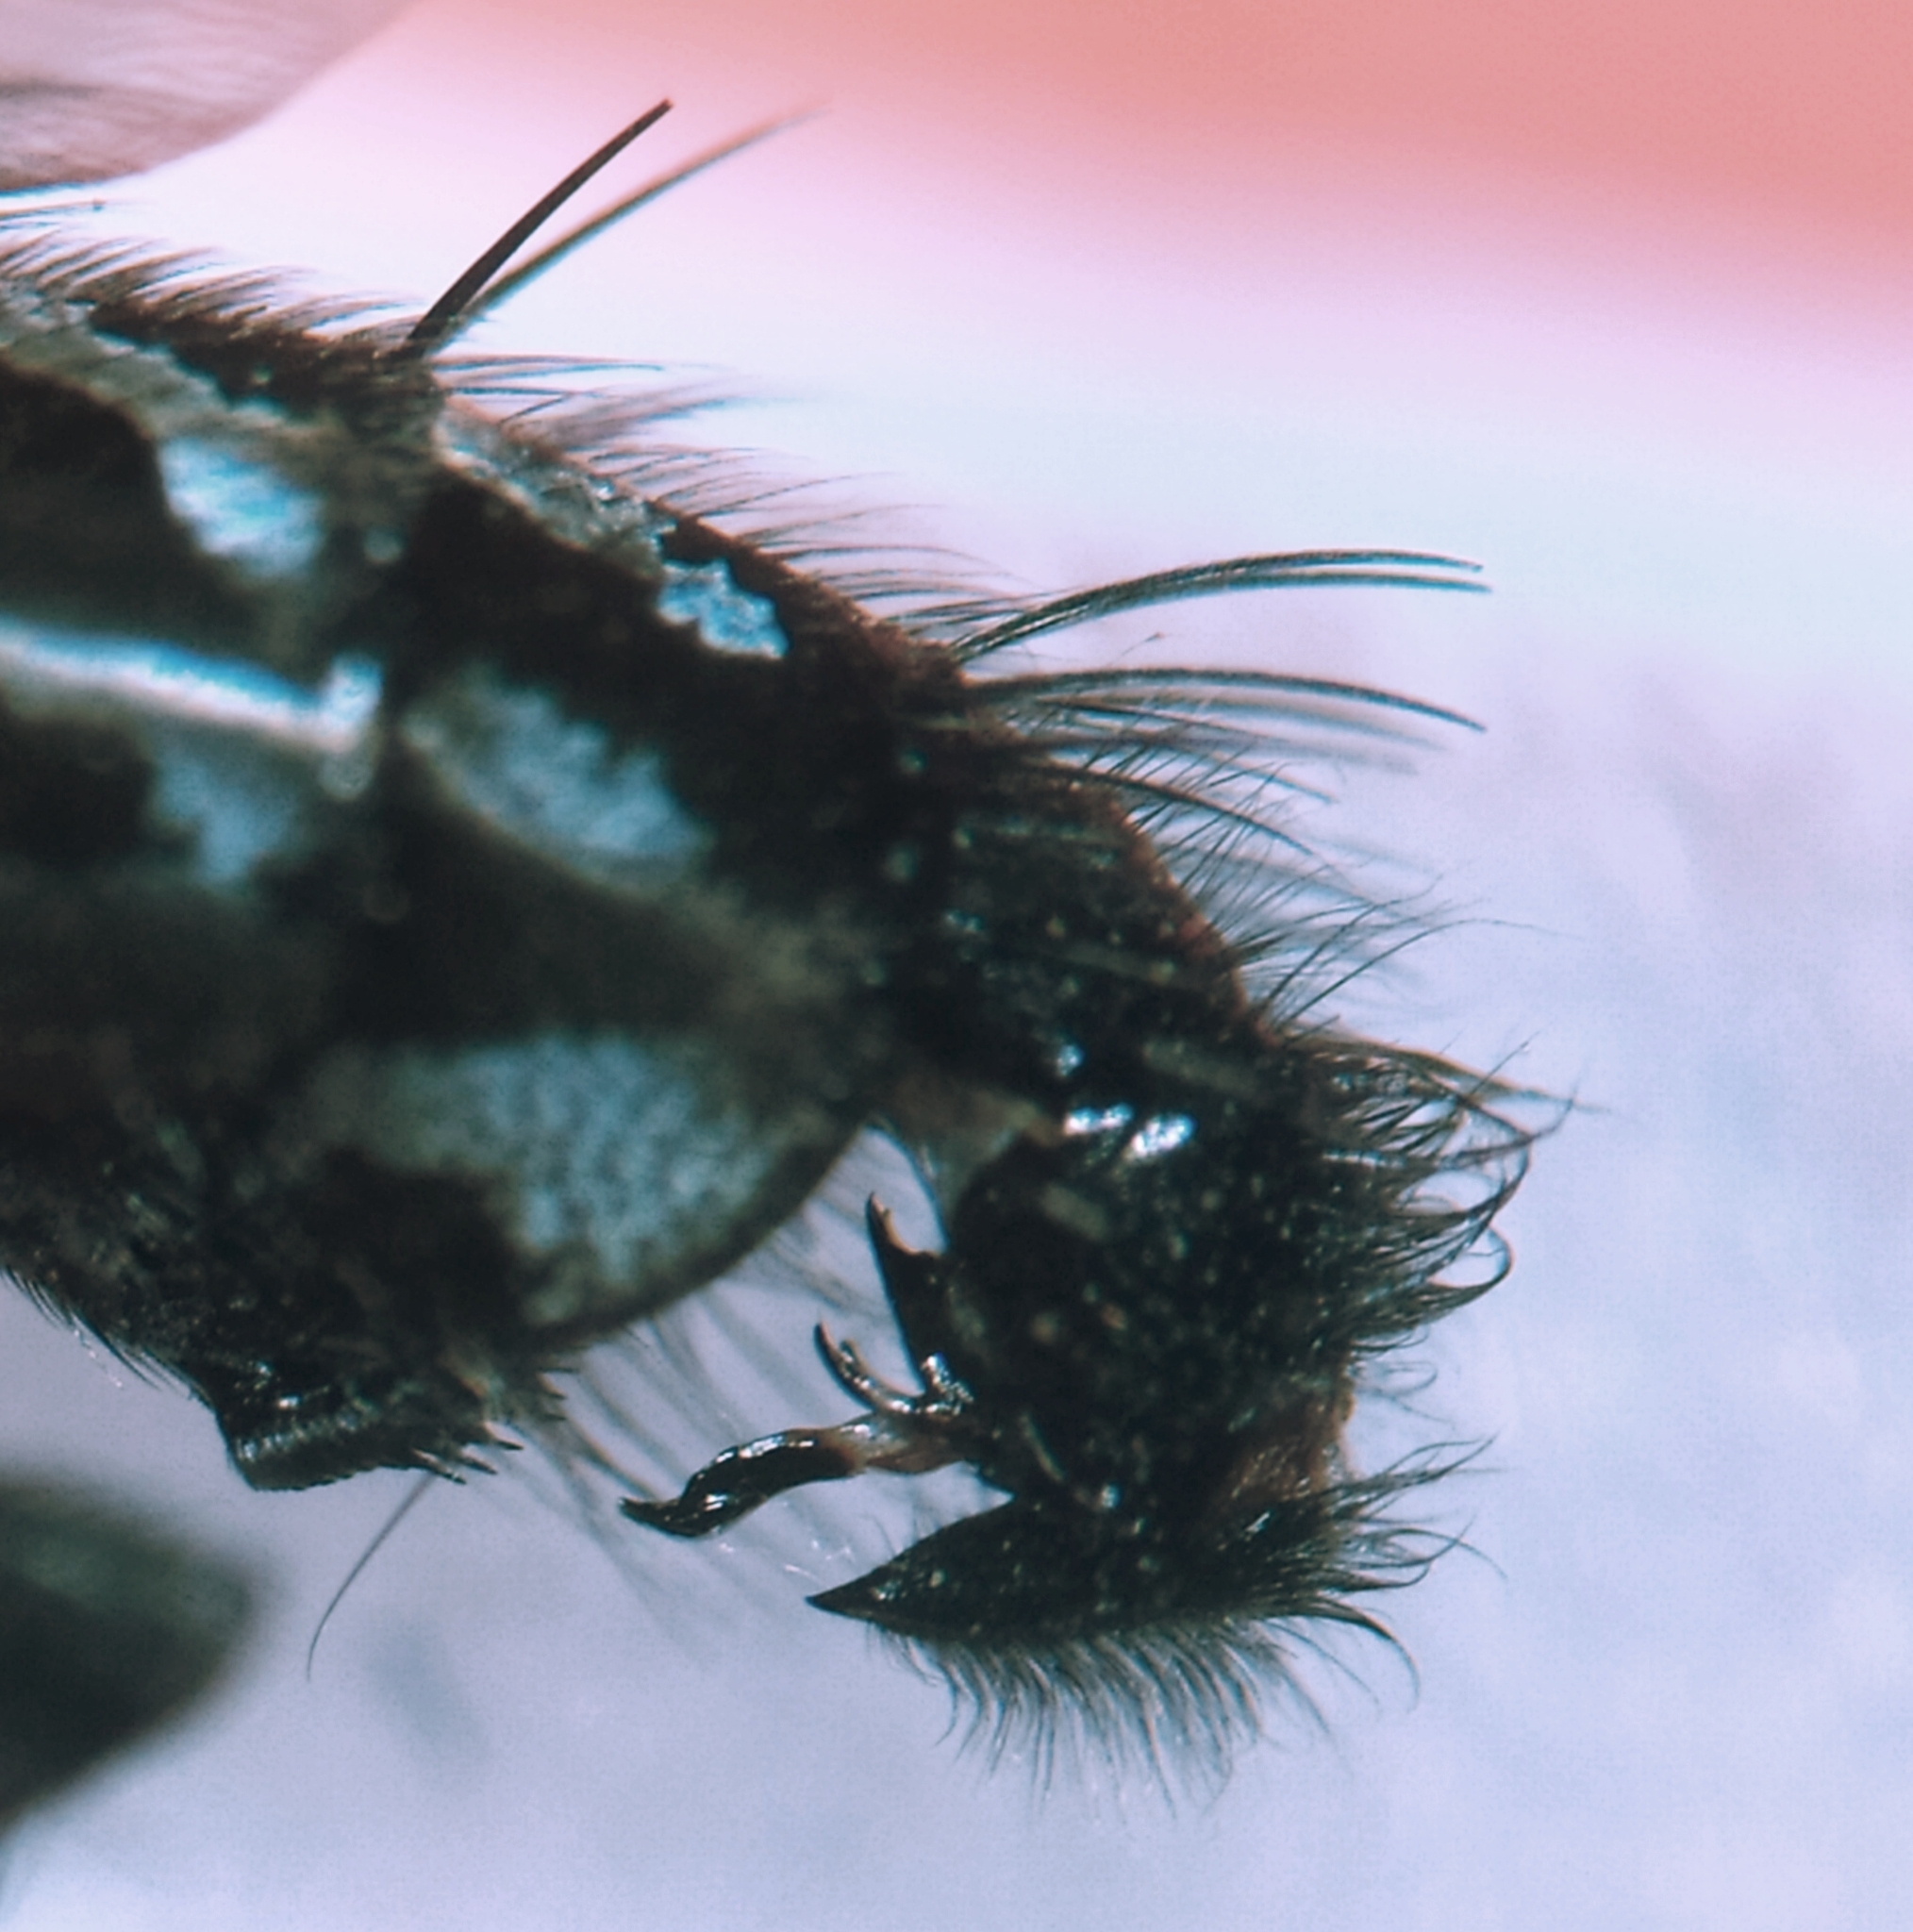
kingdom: Animalia
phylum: Arthropoda
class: Insecta
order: Diptera
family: Sarcophagidae
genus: Sarcophaga
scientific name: Sarcophaga hirticrus
